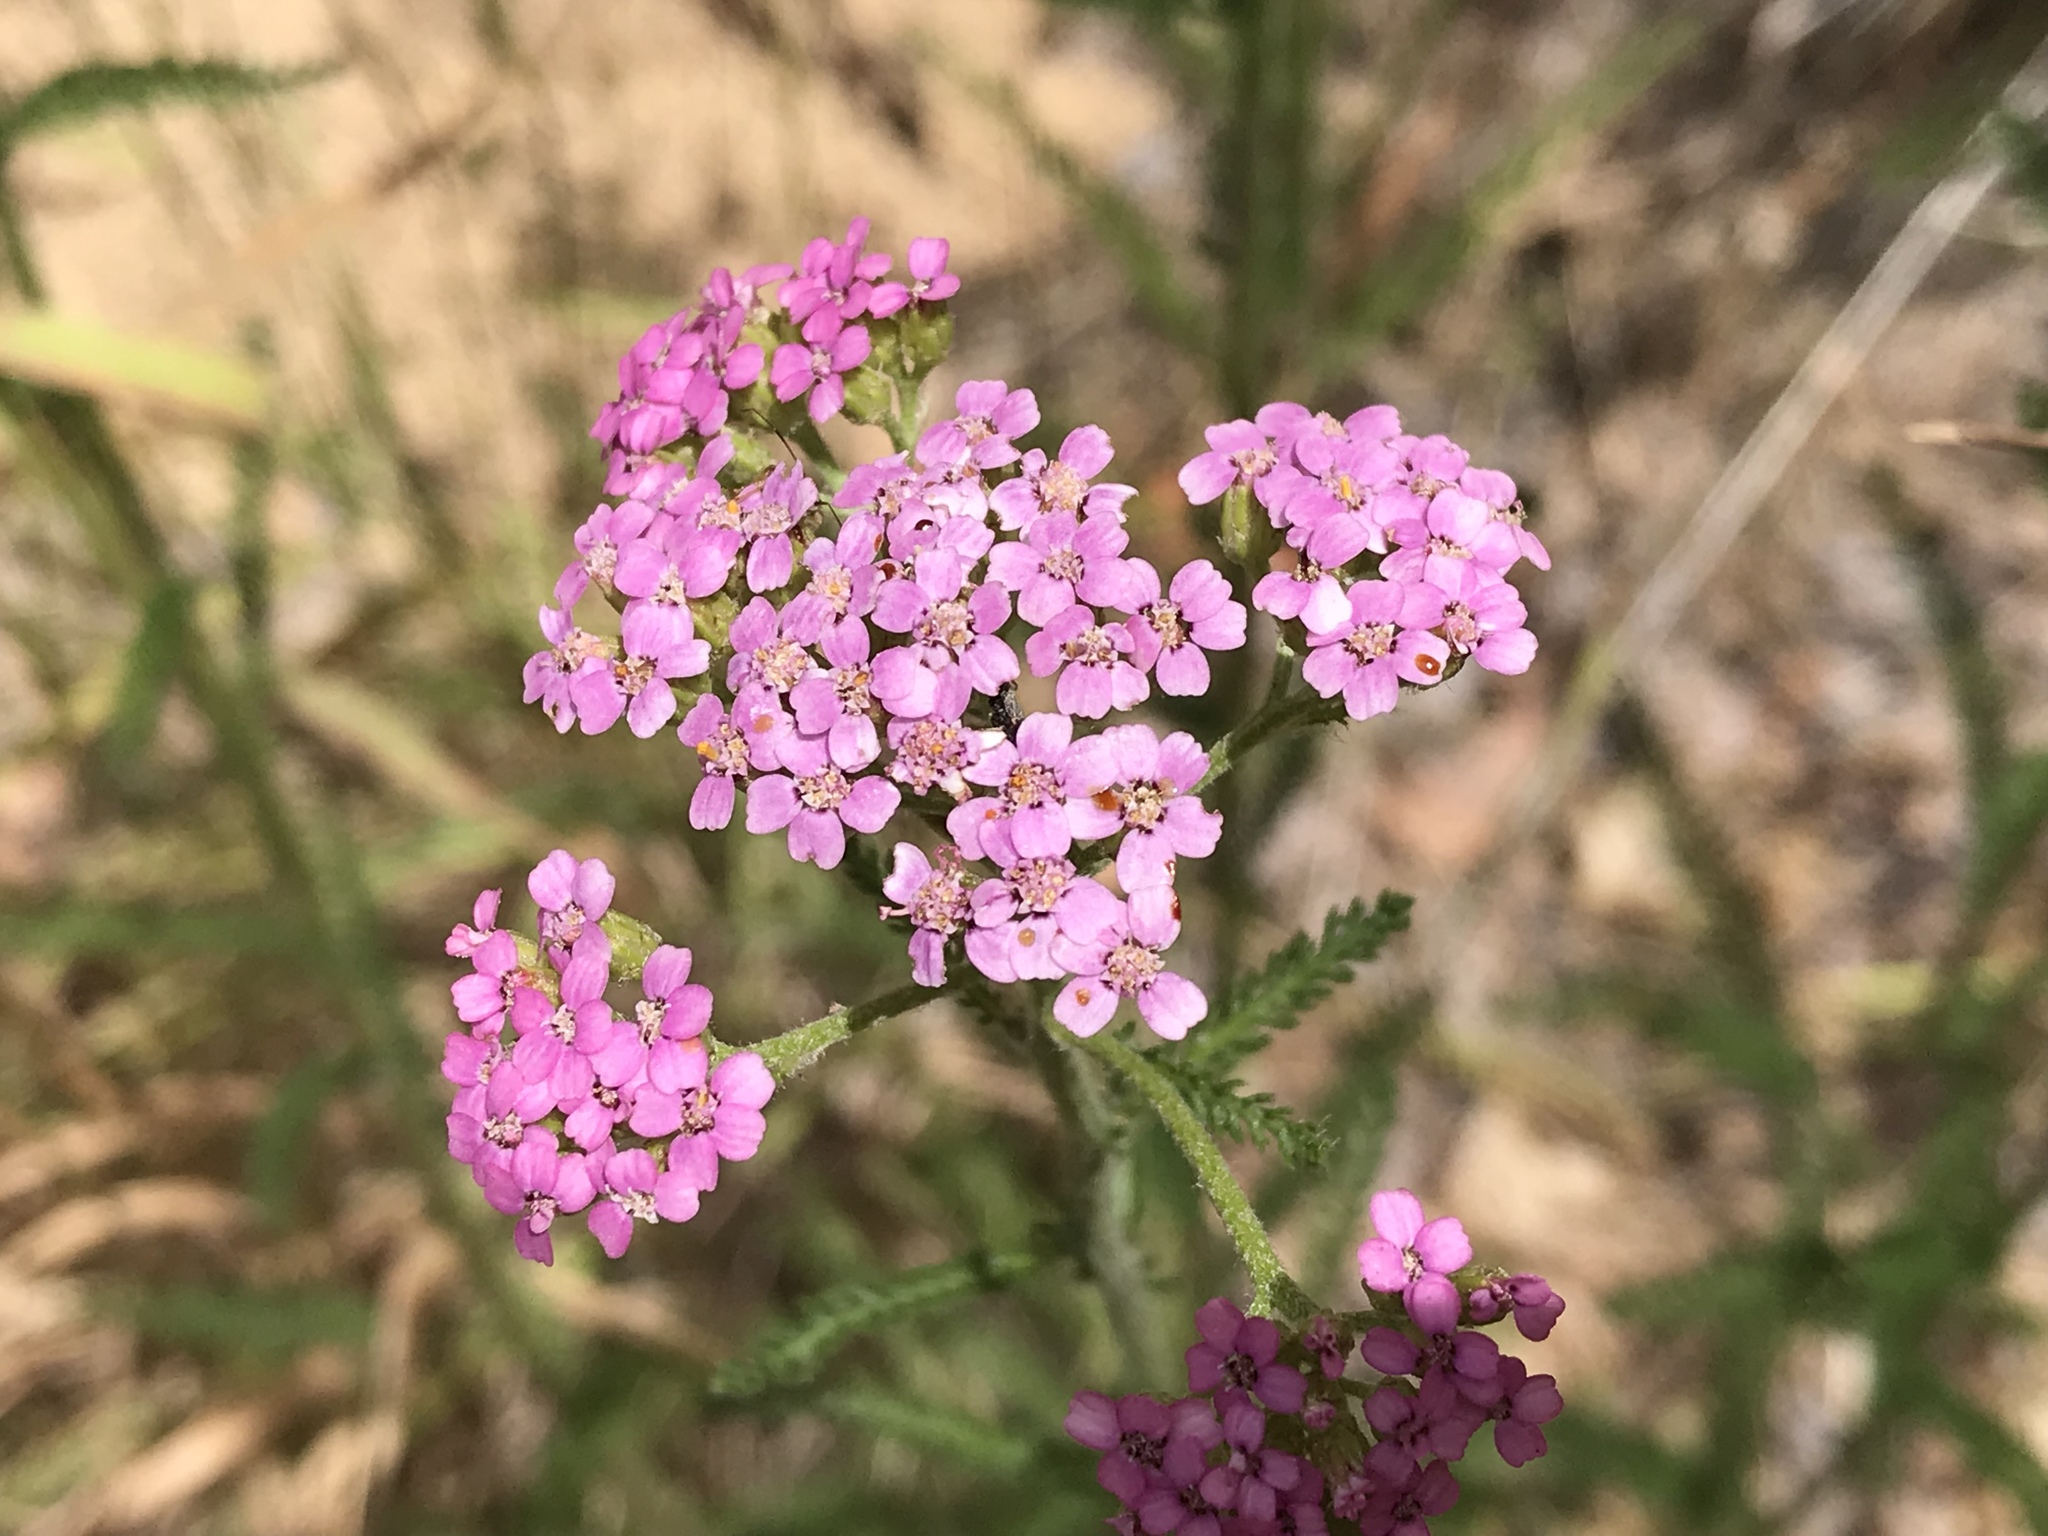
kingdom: Plantae
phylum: Tracheophyta
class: Magnoliopsida
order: Asterales
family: Asteraceae
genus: Achillea
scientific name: Achillea millefolium
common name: Yarrow
